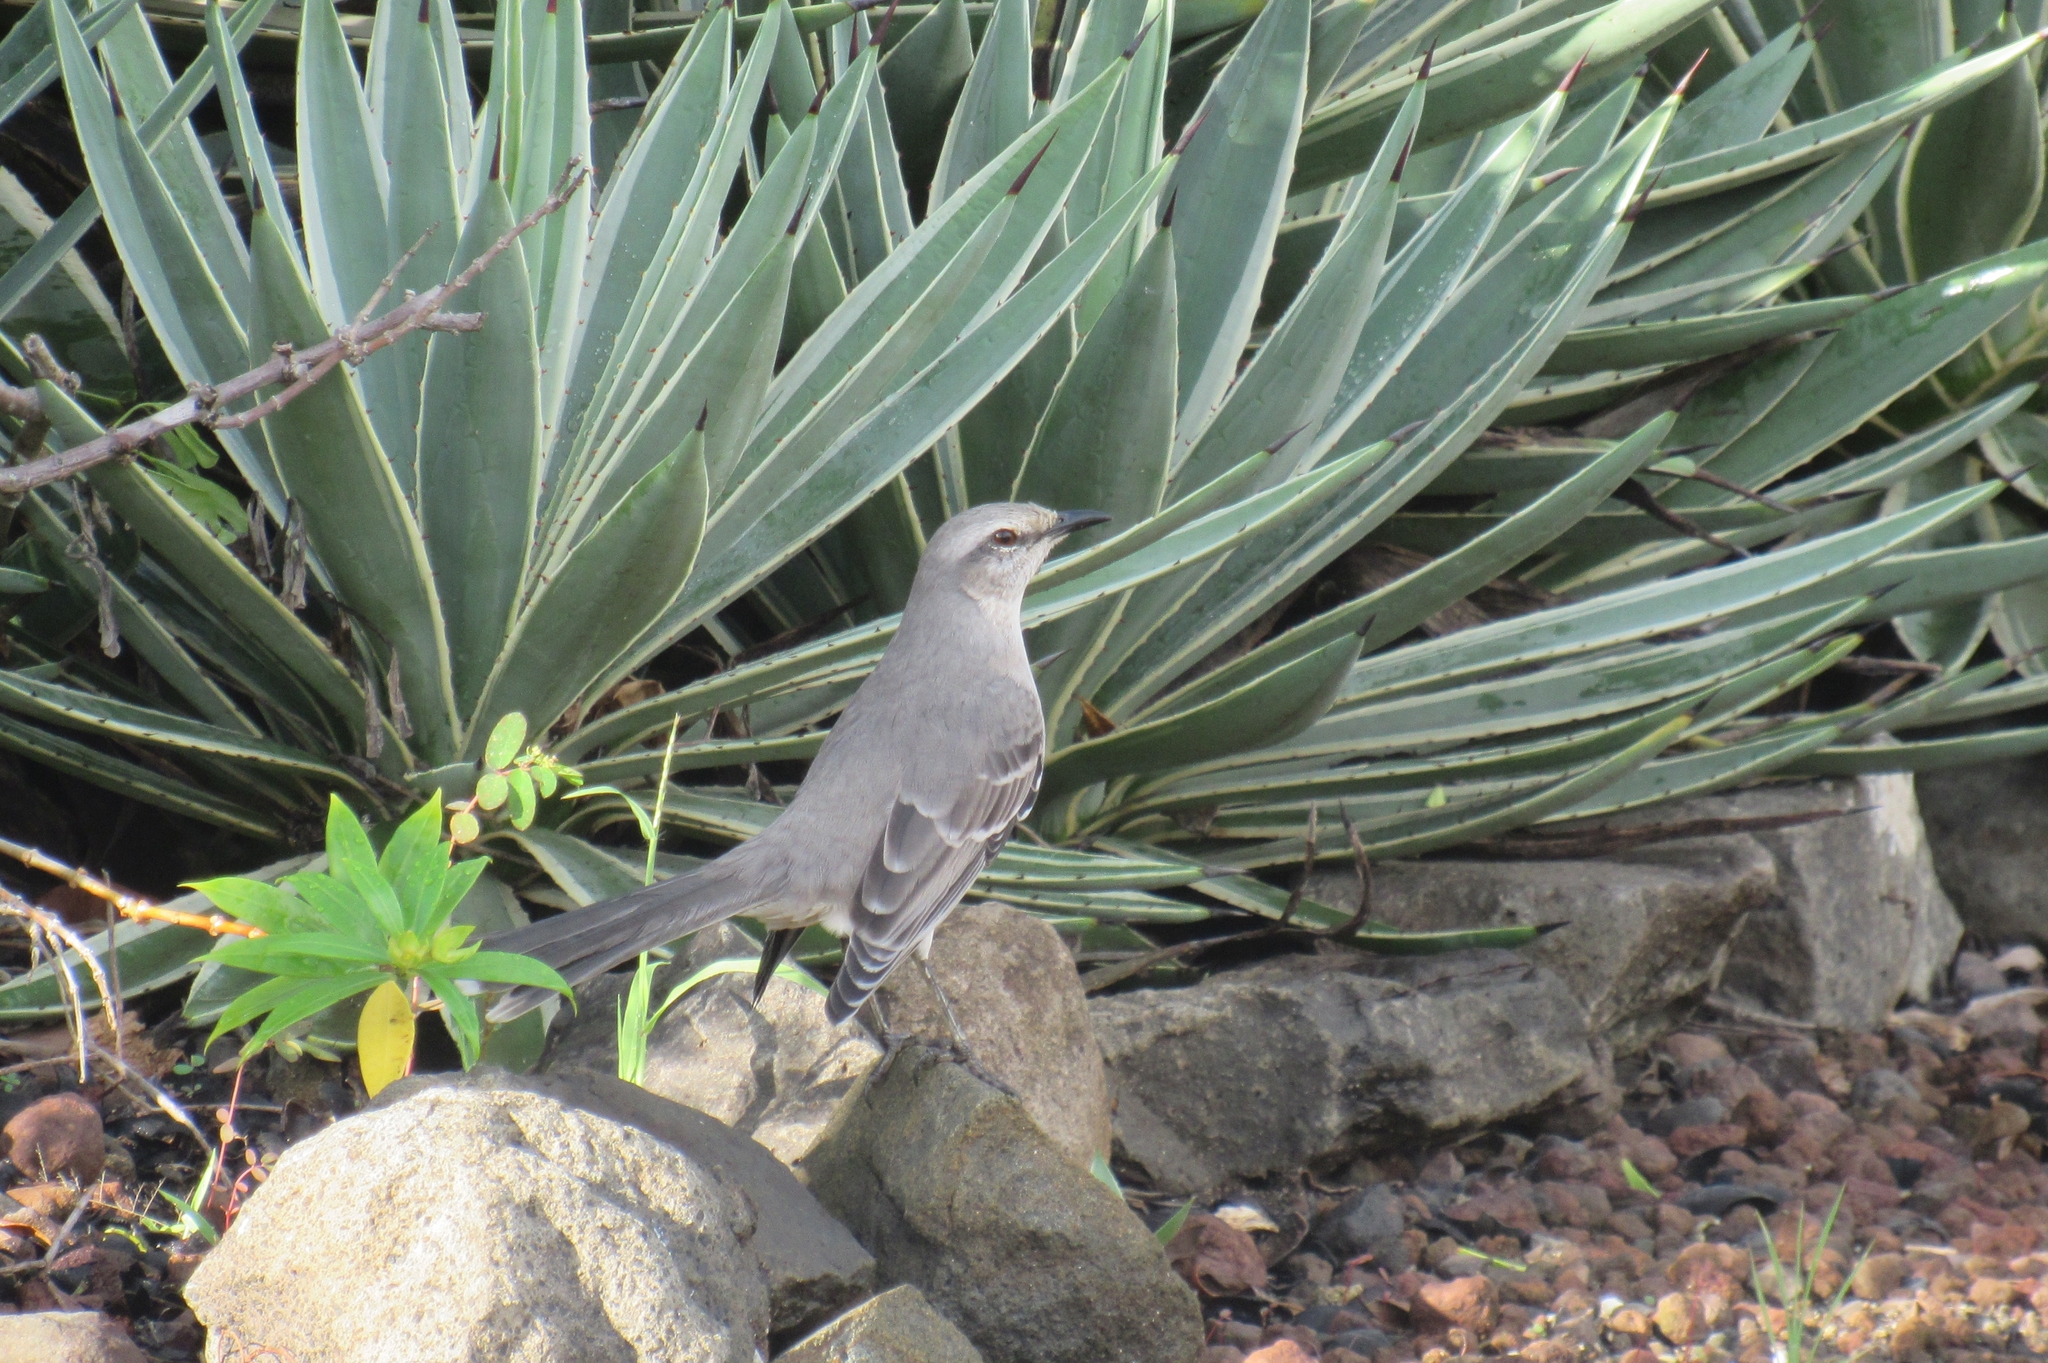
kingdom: Animalia
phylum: Chordata
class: Aves
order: Passeriformes
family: Mimidae
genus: Mimus
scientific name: Mimus gilvus
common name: Tropical mockingbird
